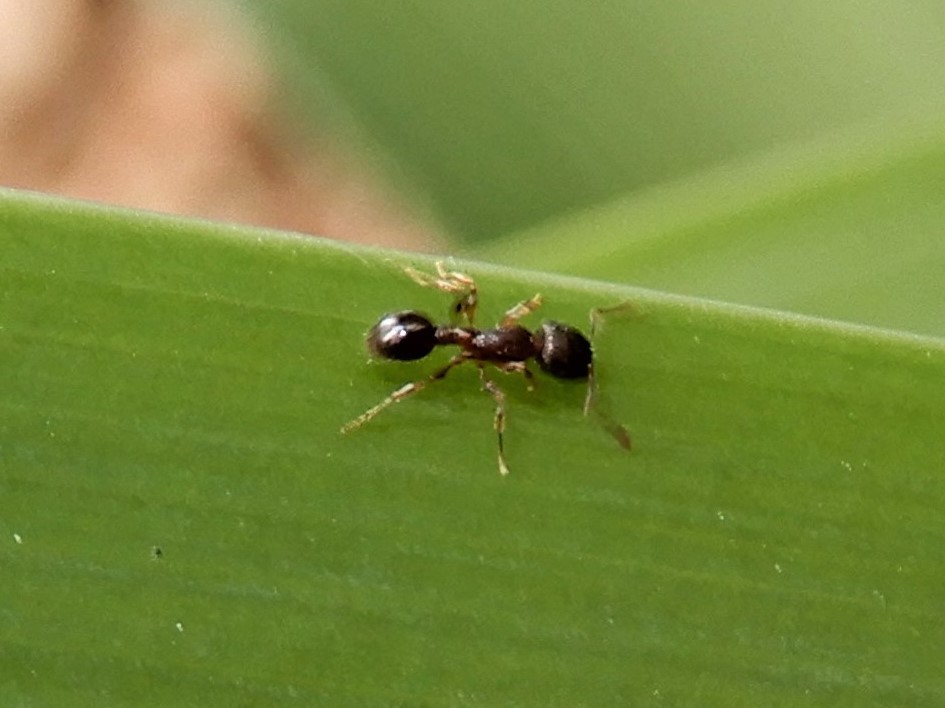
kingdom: Animalia
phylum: Arthropoda
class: Insecta
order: Hymenoptera
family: Formicidae
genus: Tetramorium
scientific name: Tetramorium grassii
